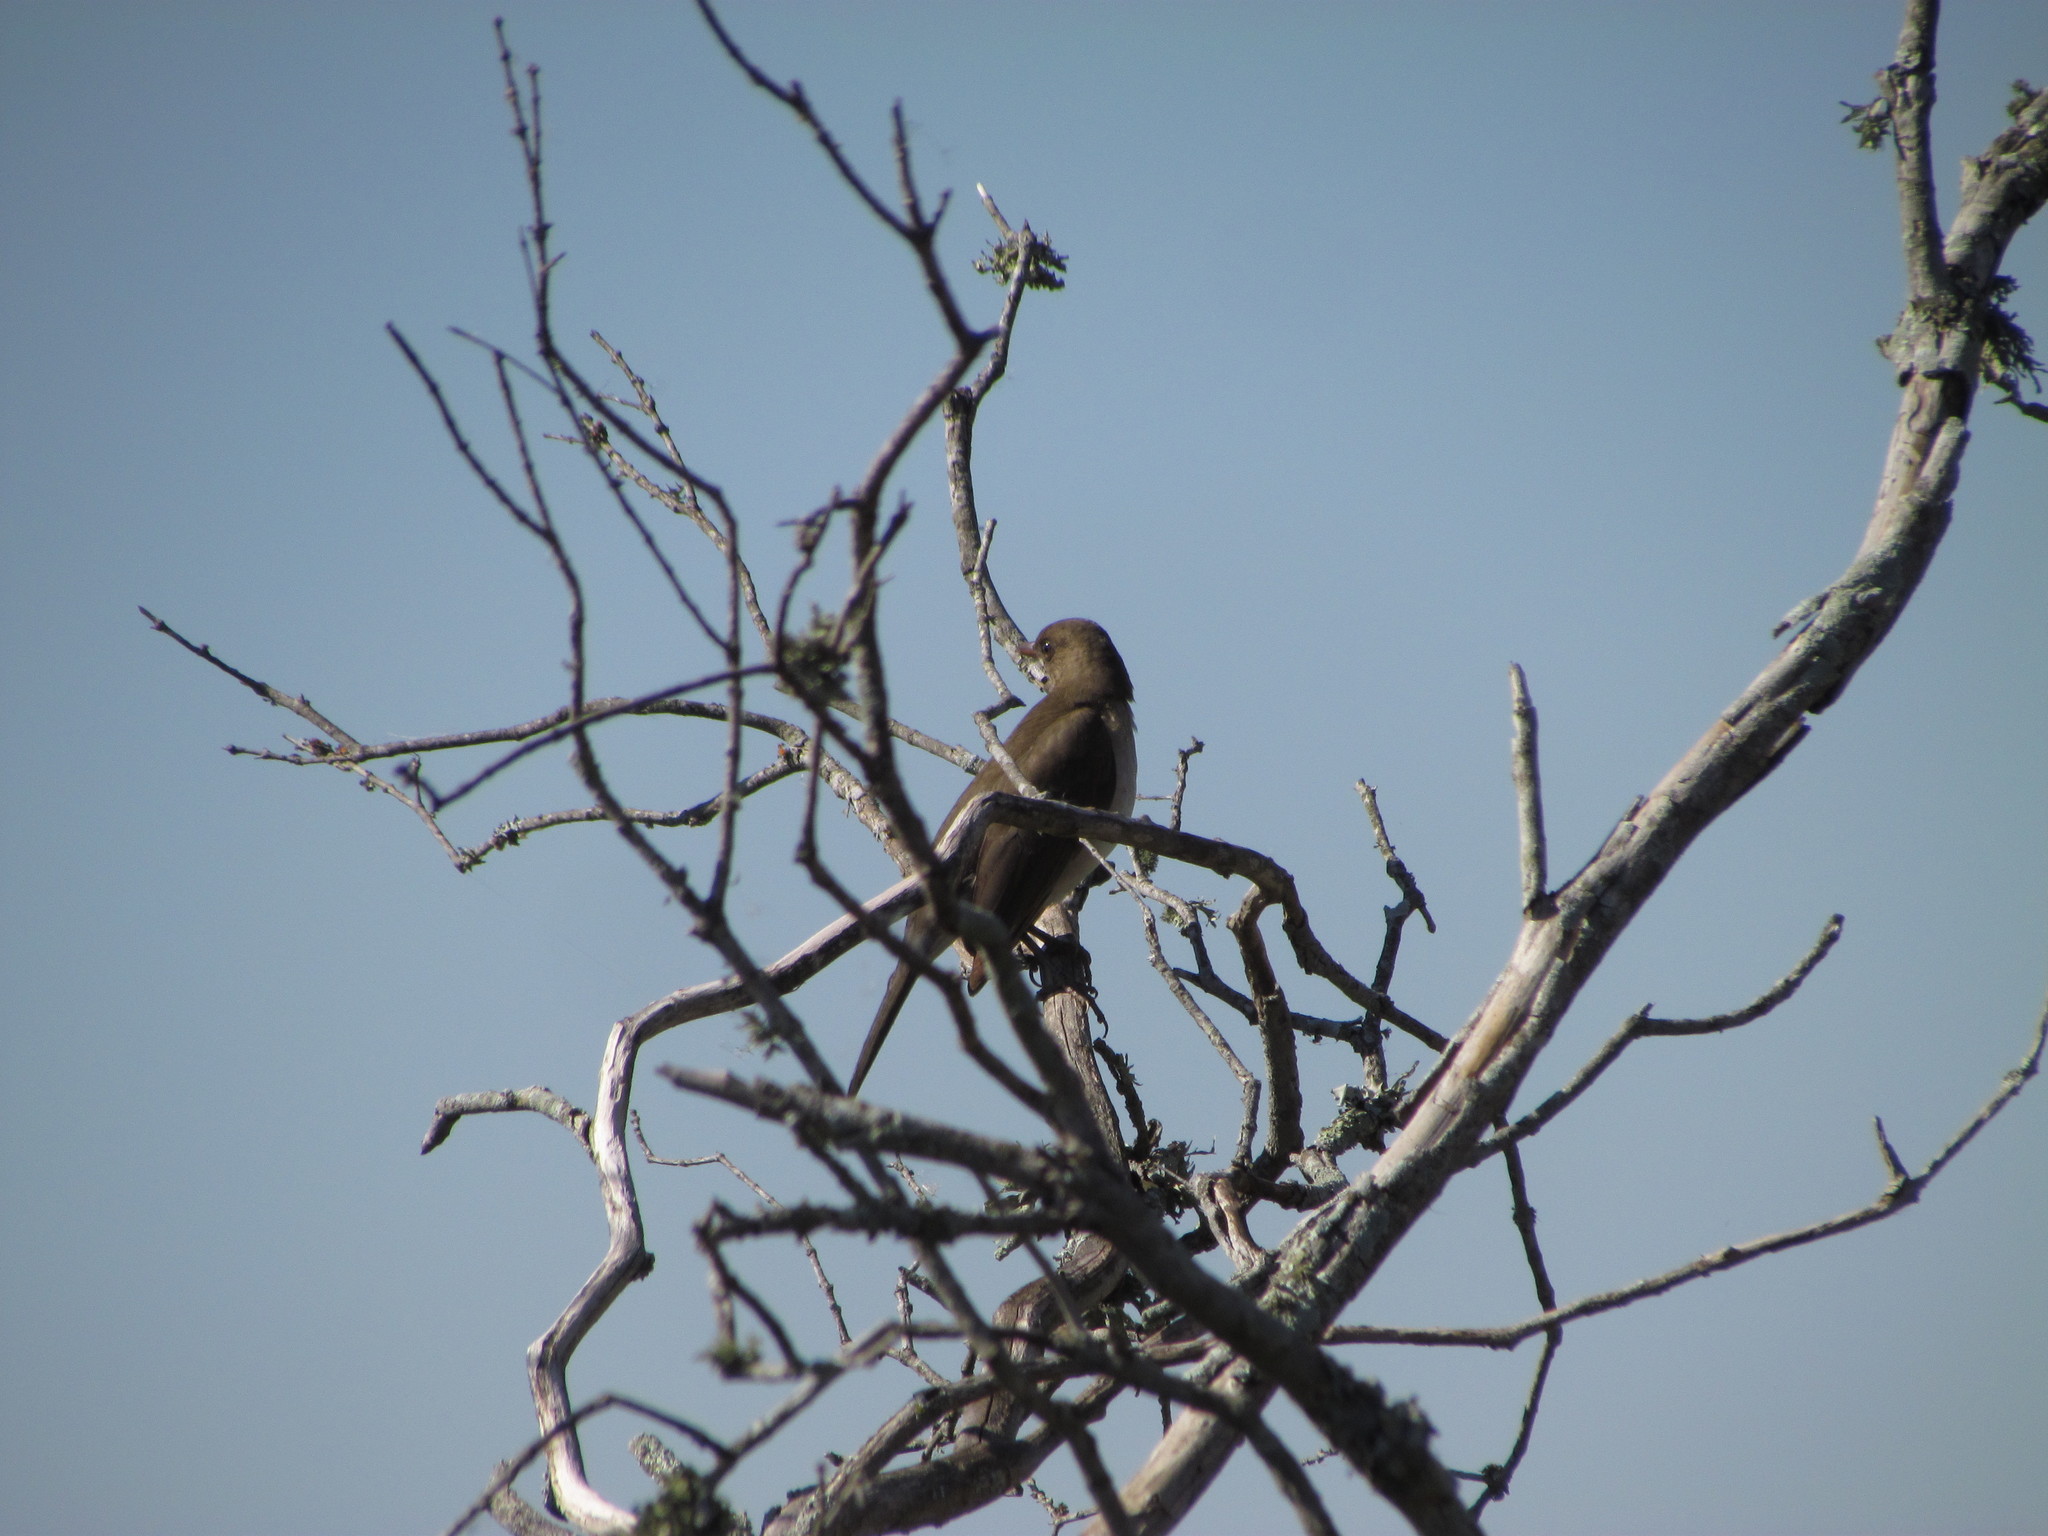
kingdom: Animalia
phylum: Chordata
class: Aves
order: Passeriformes
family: Turdidae
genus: Turdus
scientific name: Turdus amaurochalinus
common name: Creamy-bellied thrush
